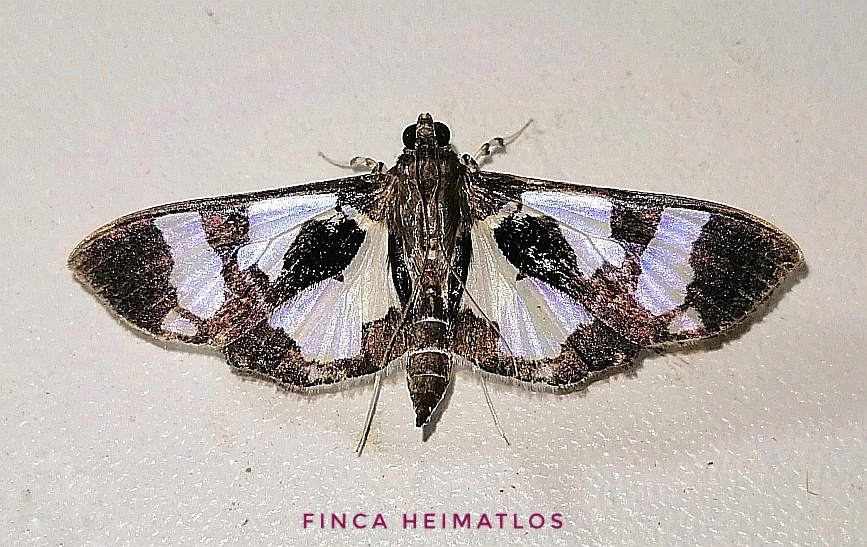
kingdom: Animalia
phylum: Arthropoda
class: Insecta
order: Lepidoptera
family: Crambidae
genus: Desmia
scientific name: Desmia bajulalis
